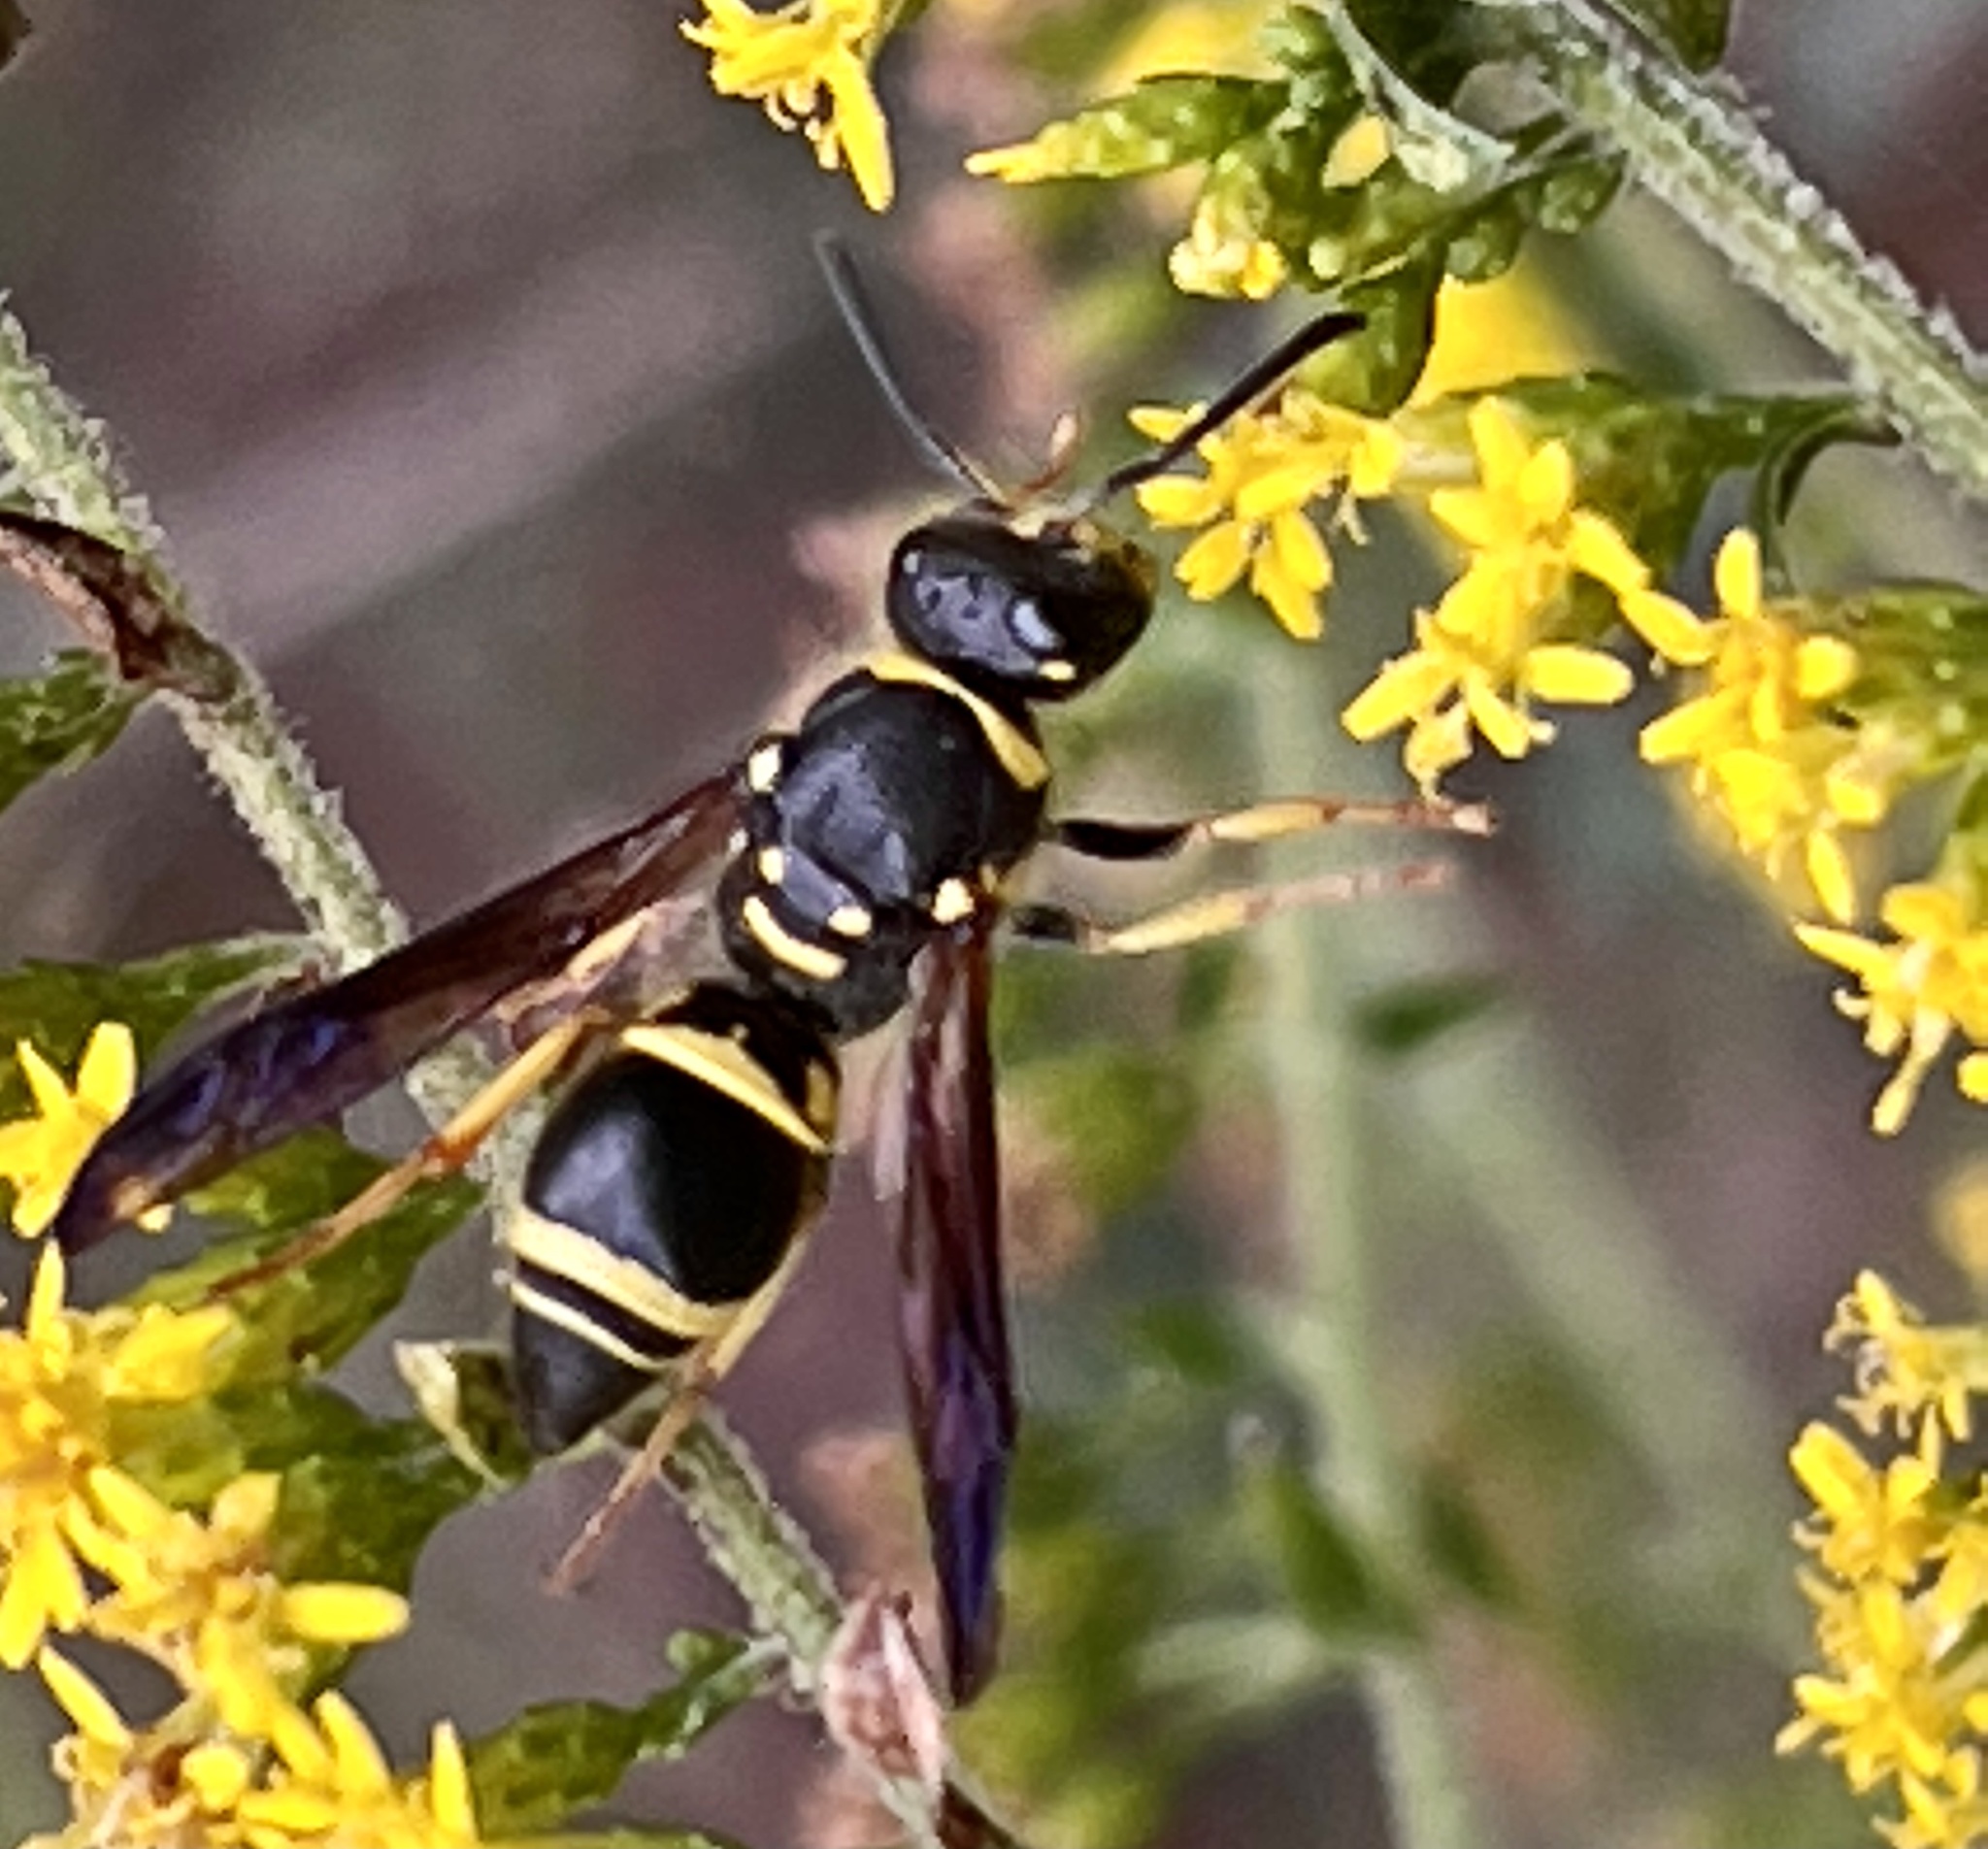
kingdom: Animalia
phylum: Arthropoda
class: Insecta
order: Hymenoptera
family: Vespidae
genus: Ancistrocerus
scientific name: Ancistrocerus campestris
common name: Smiling mason wasp
